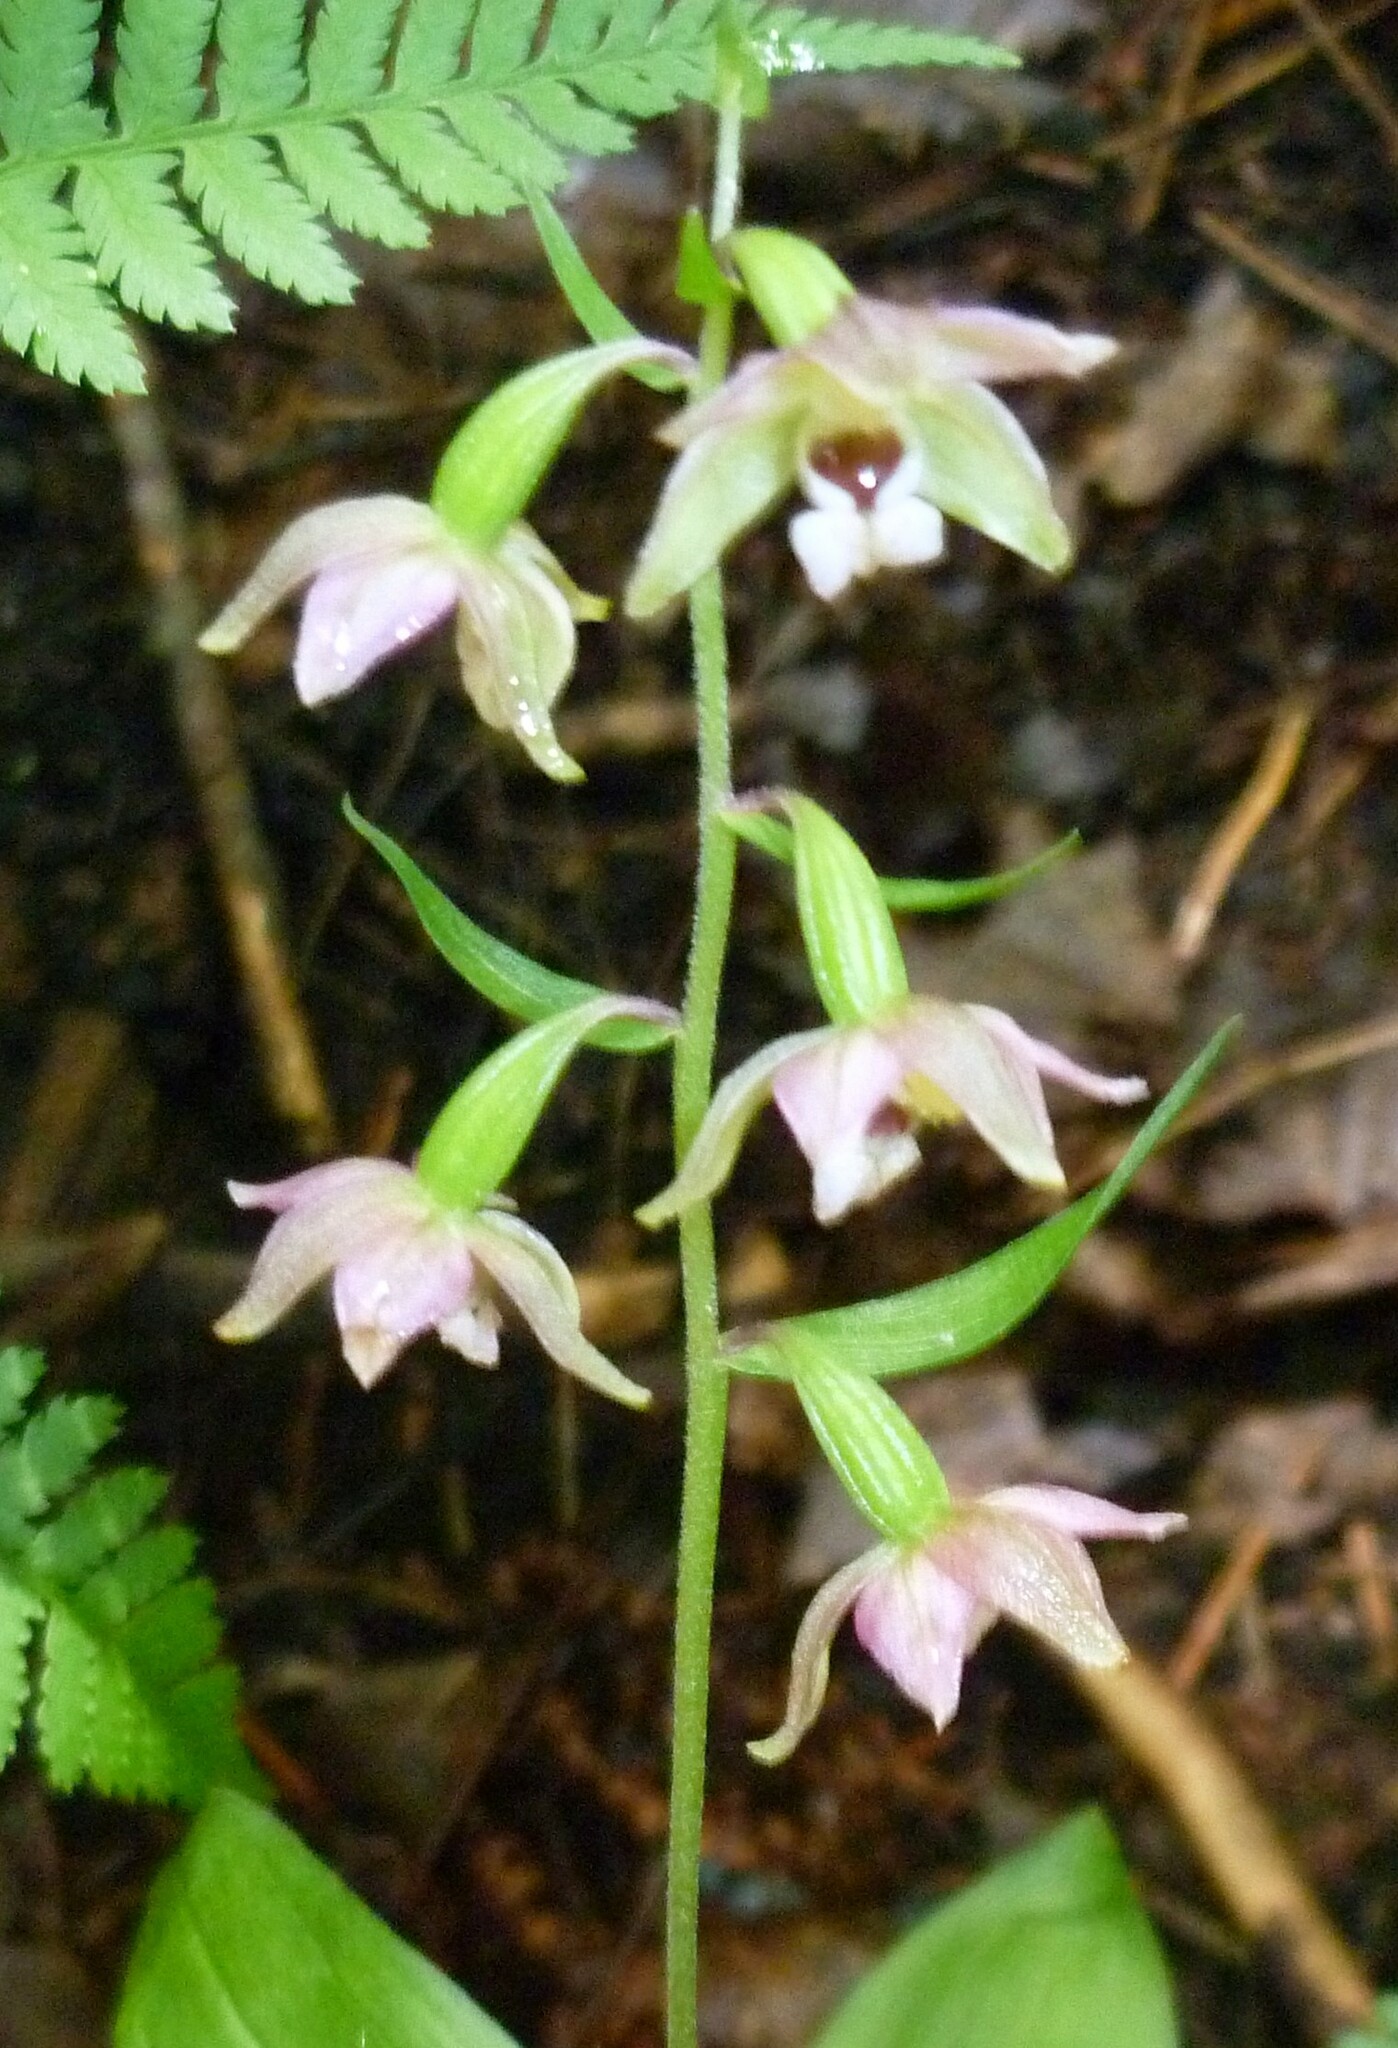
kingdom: Plantae
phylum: Tracheophyta
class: Liliopsida
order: Asparagales
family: Orchidaceae
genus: Epipactis
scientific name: Epipactis helleborine
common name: Broad-leaved helleborine
